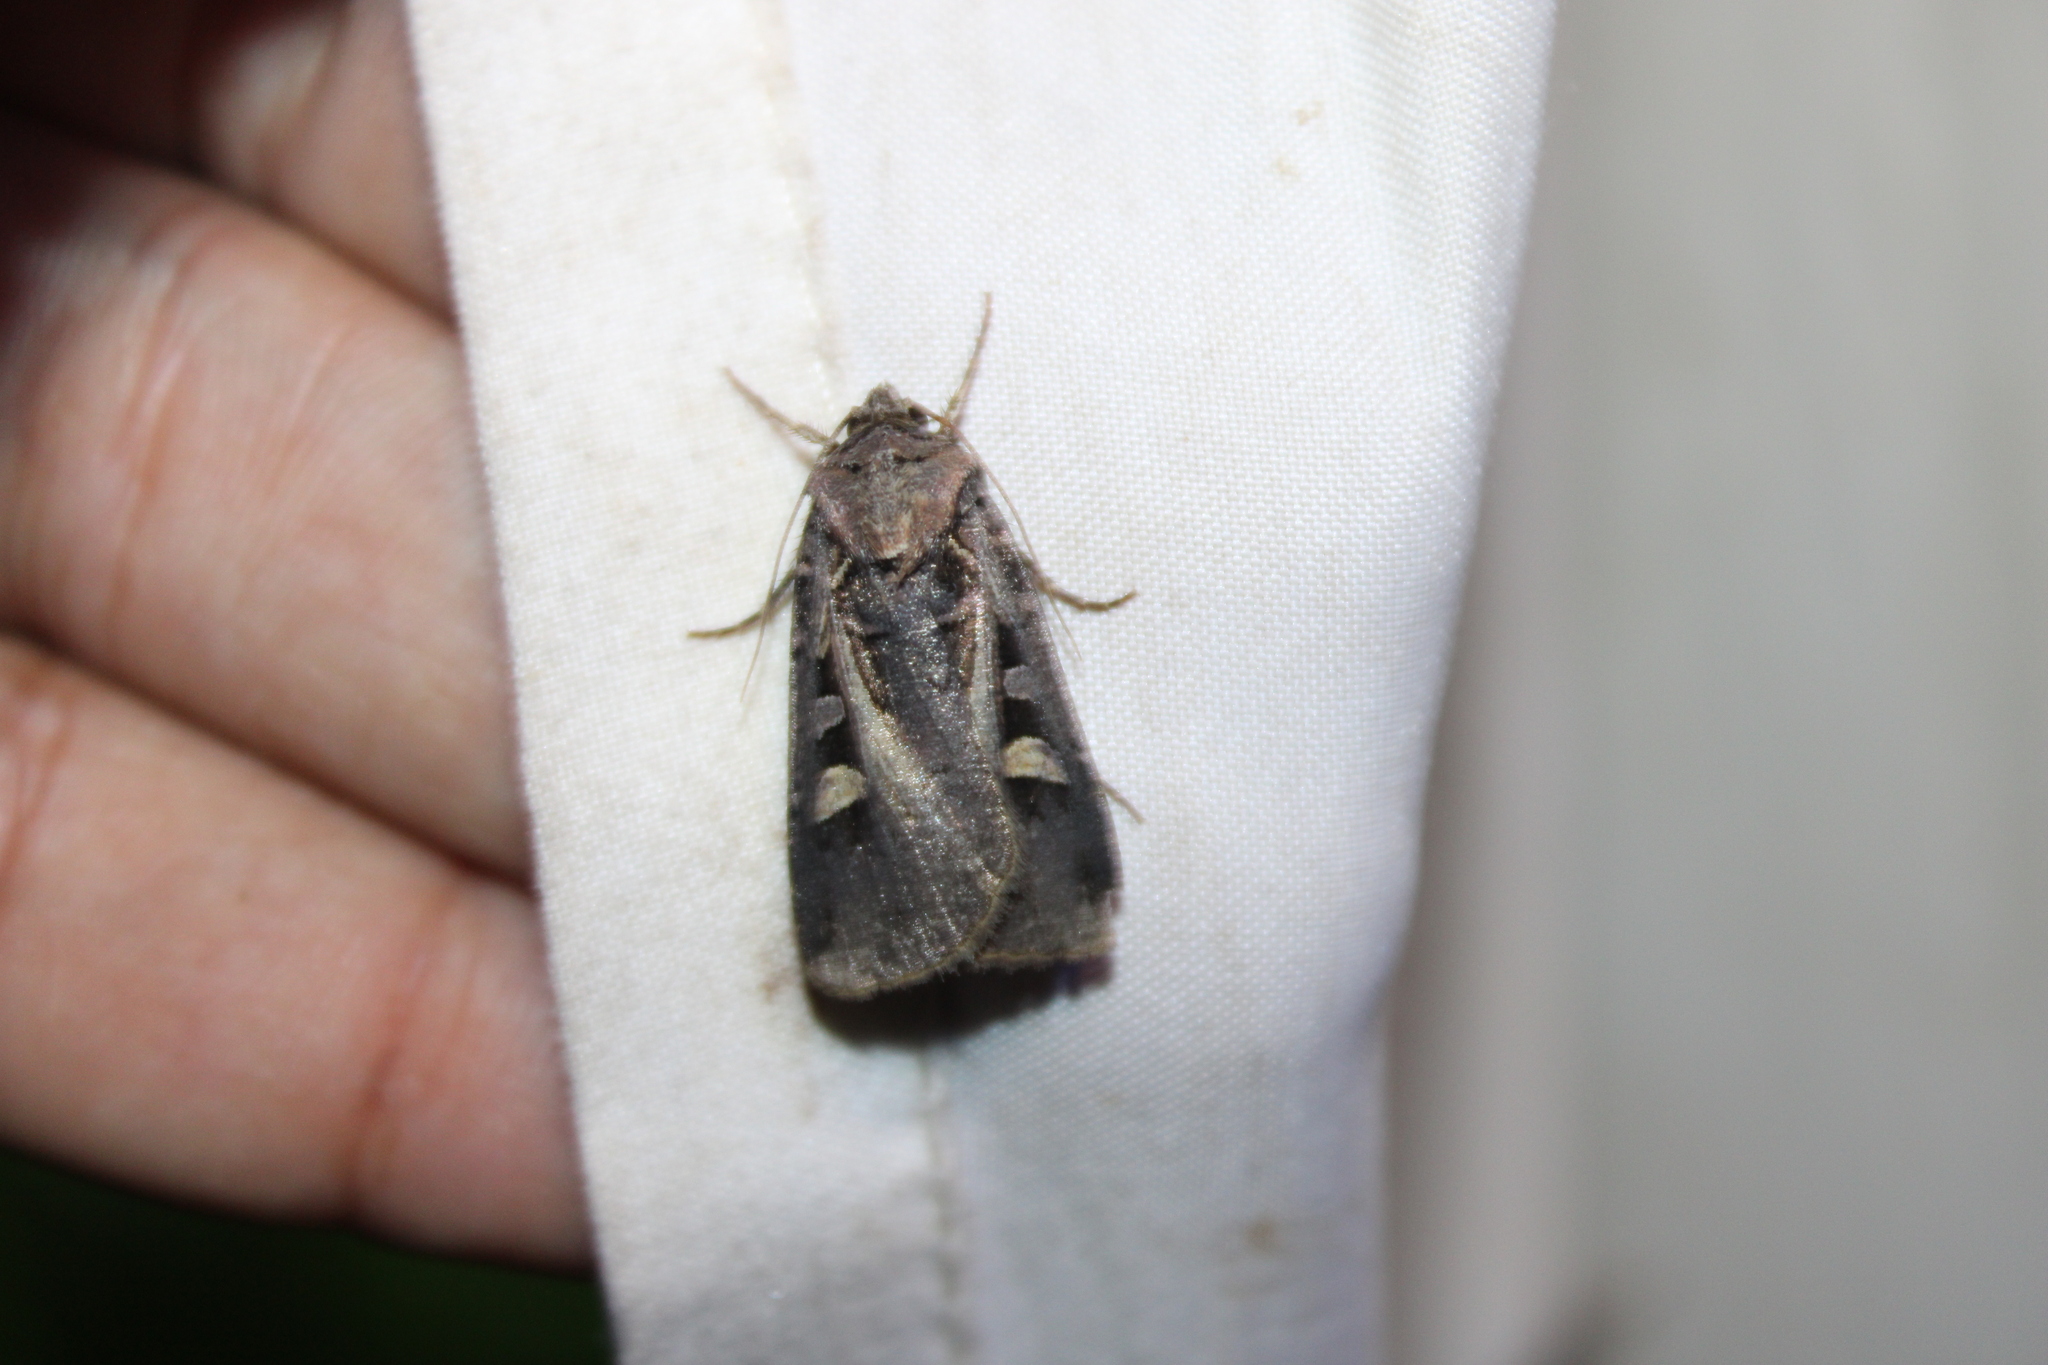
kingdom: Animalia
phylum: Arthropoda
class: Insecta
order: Lepidoptera
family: Noctuidae
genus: Feltia
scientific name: Feltia herilis
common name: Master's dart
